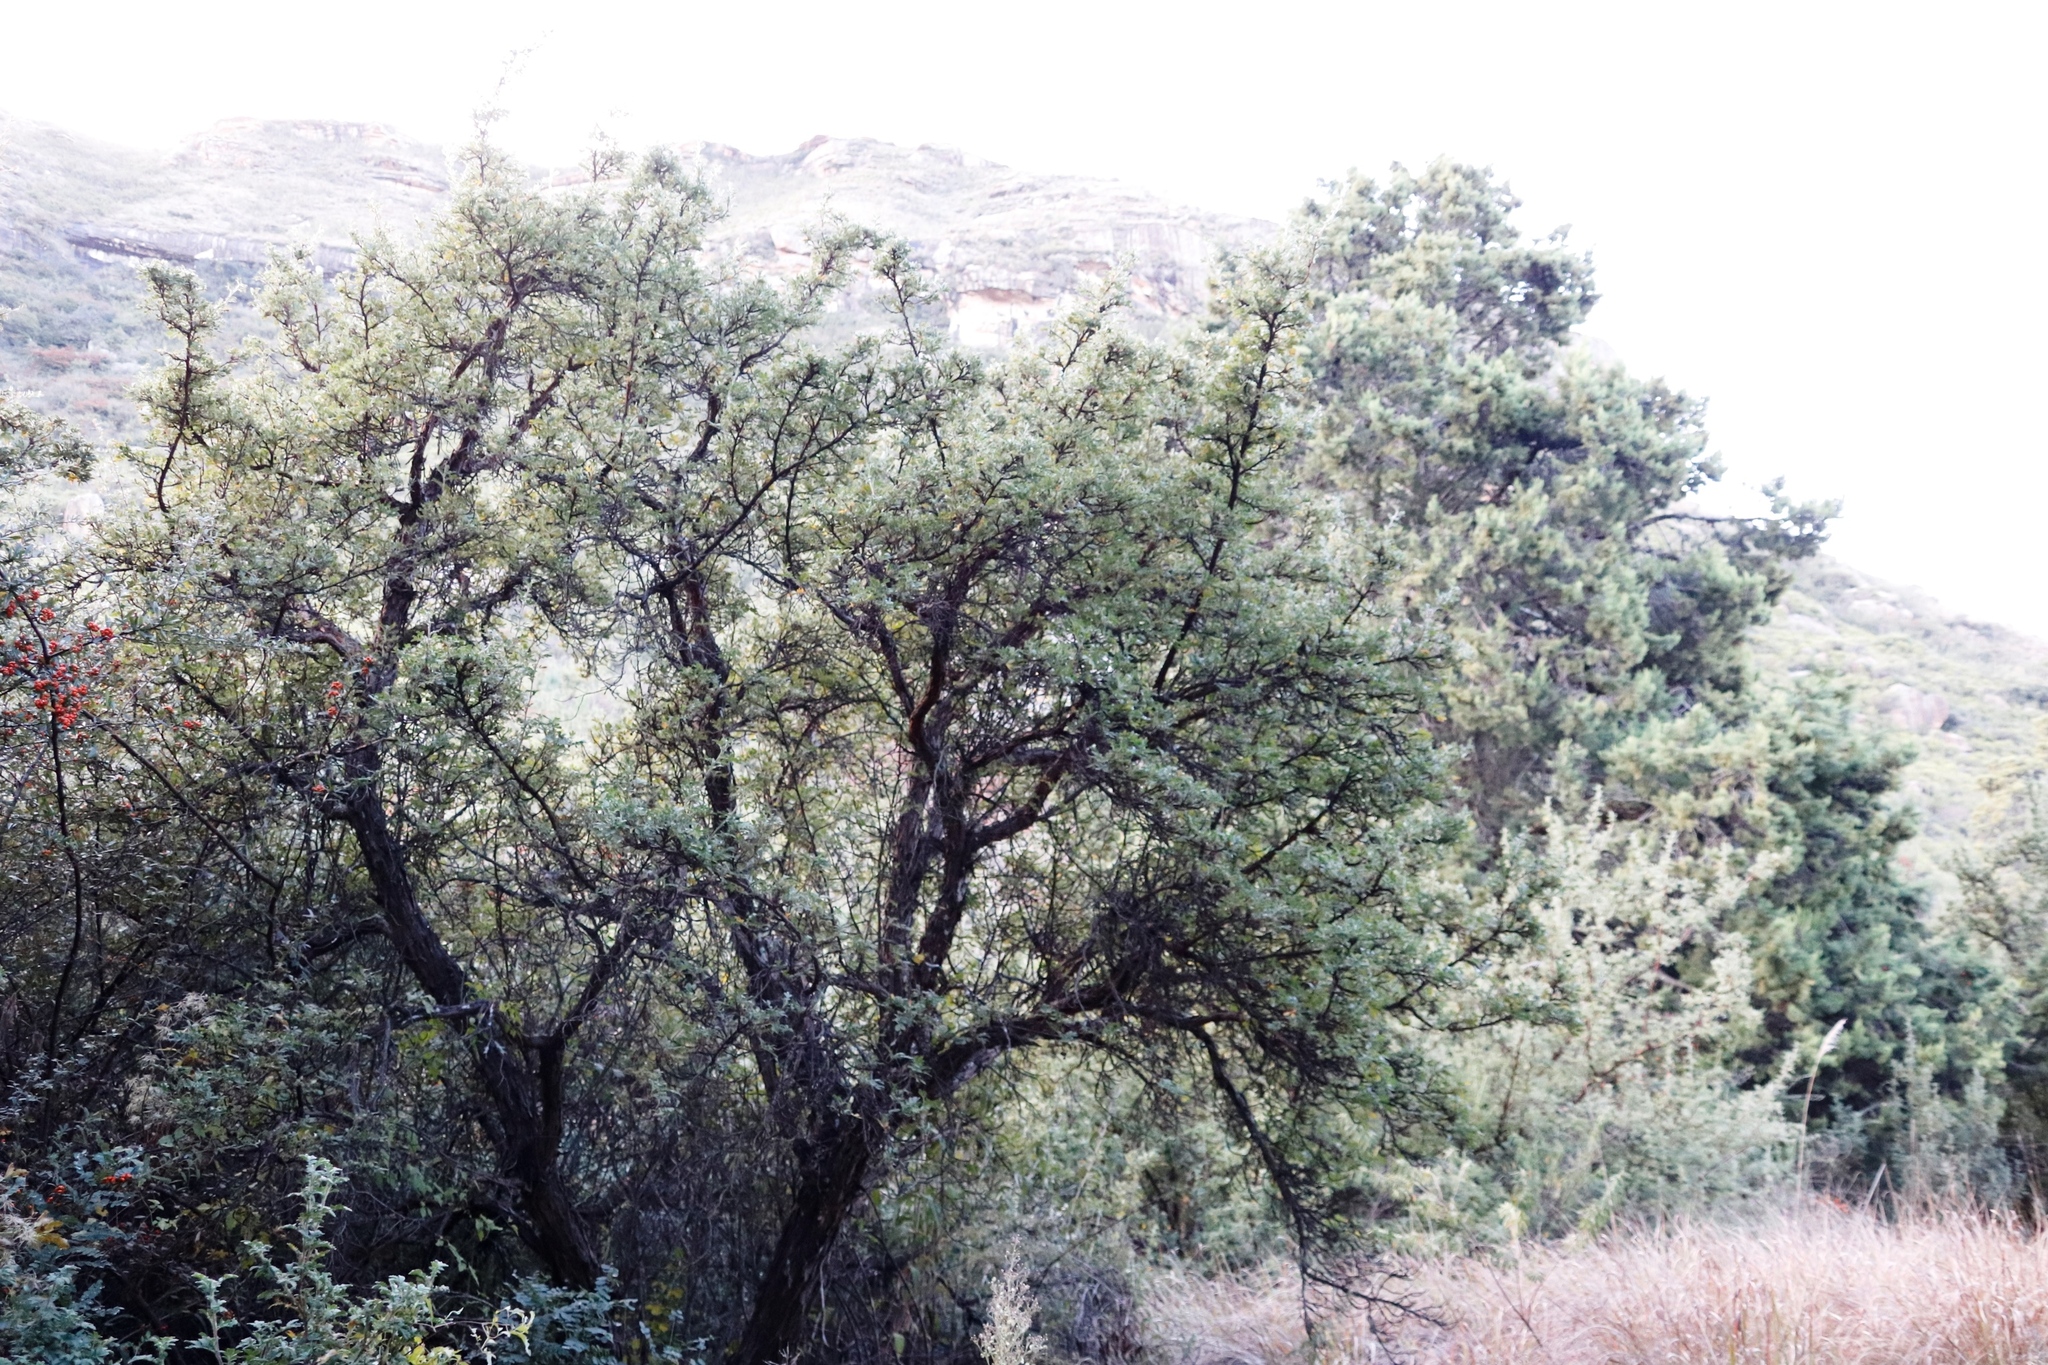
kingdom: Plantae
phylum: Tracheophyta
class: Magnoliopsida
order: Rosales
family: Rosaceae
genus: Leucosidea
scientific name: Leucosidea sericea
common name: Oldwood
